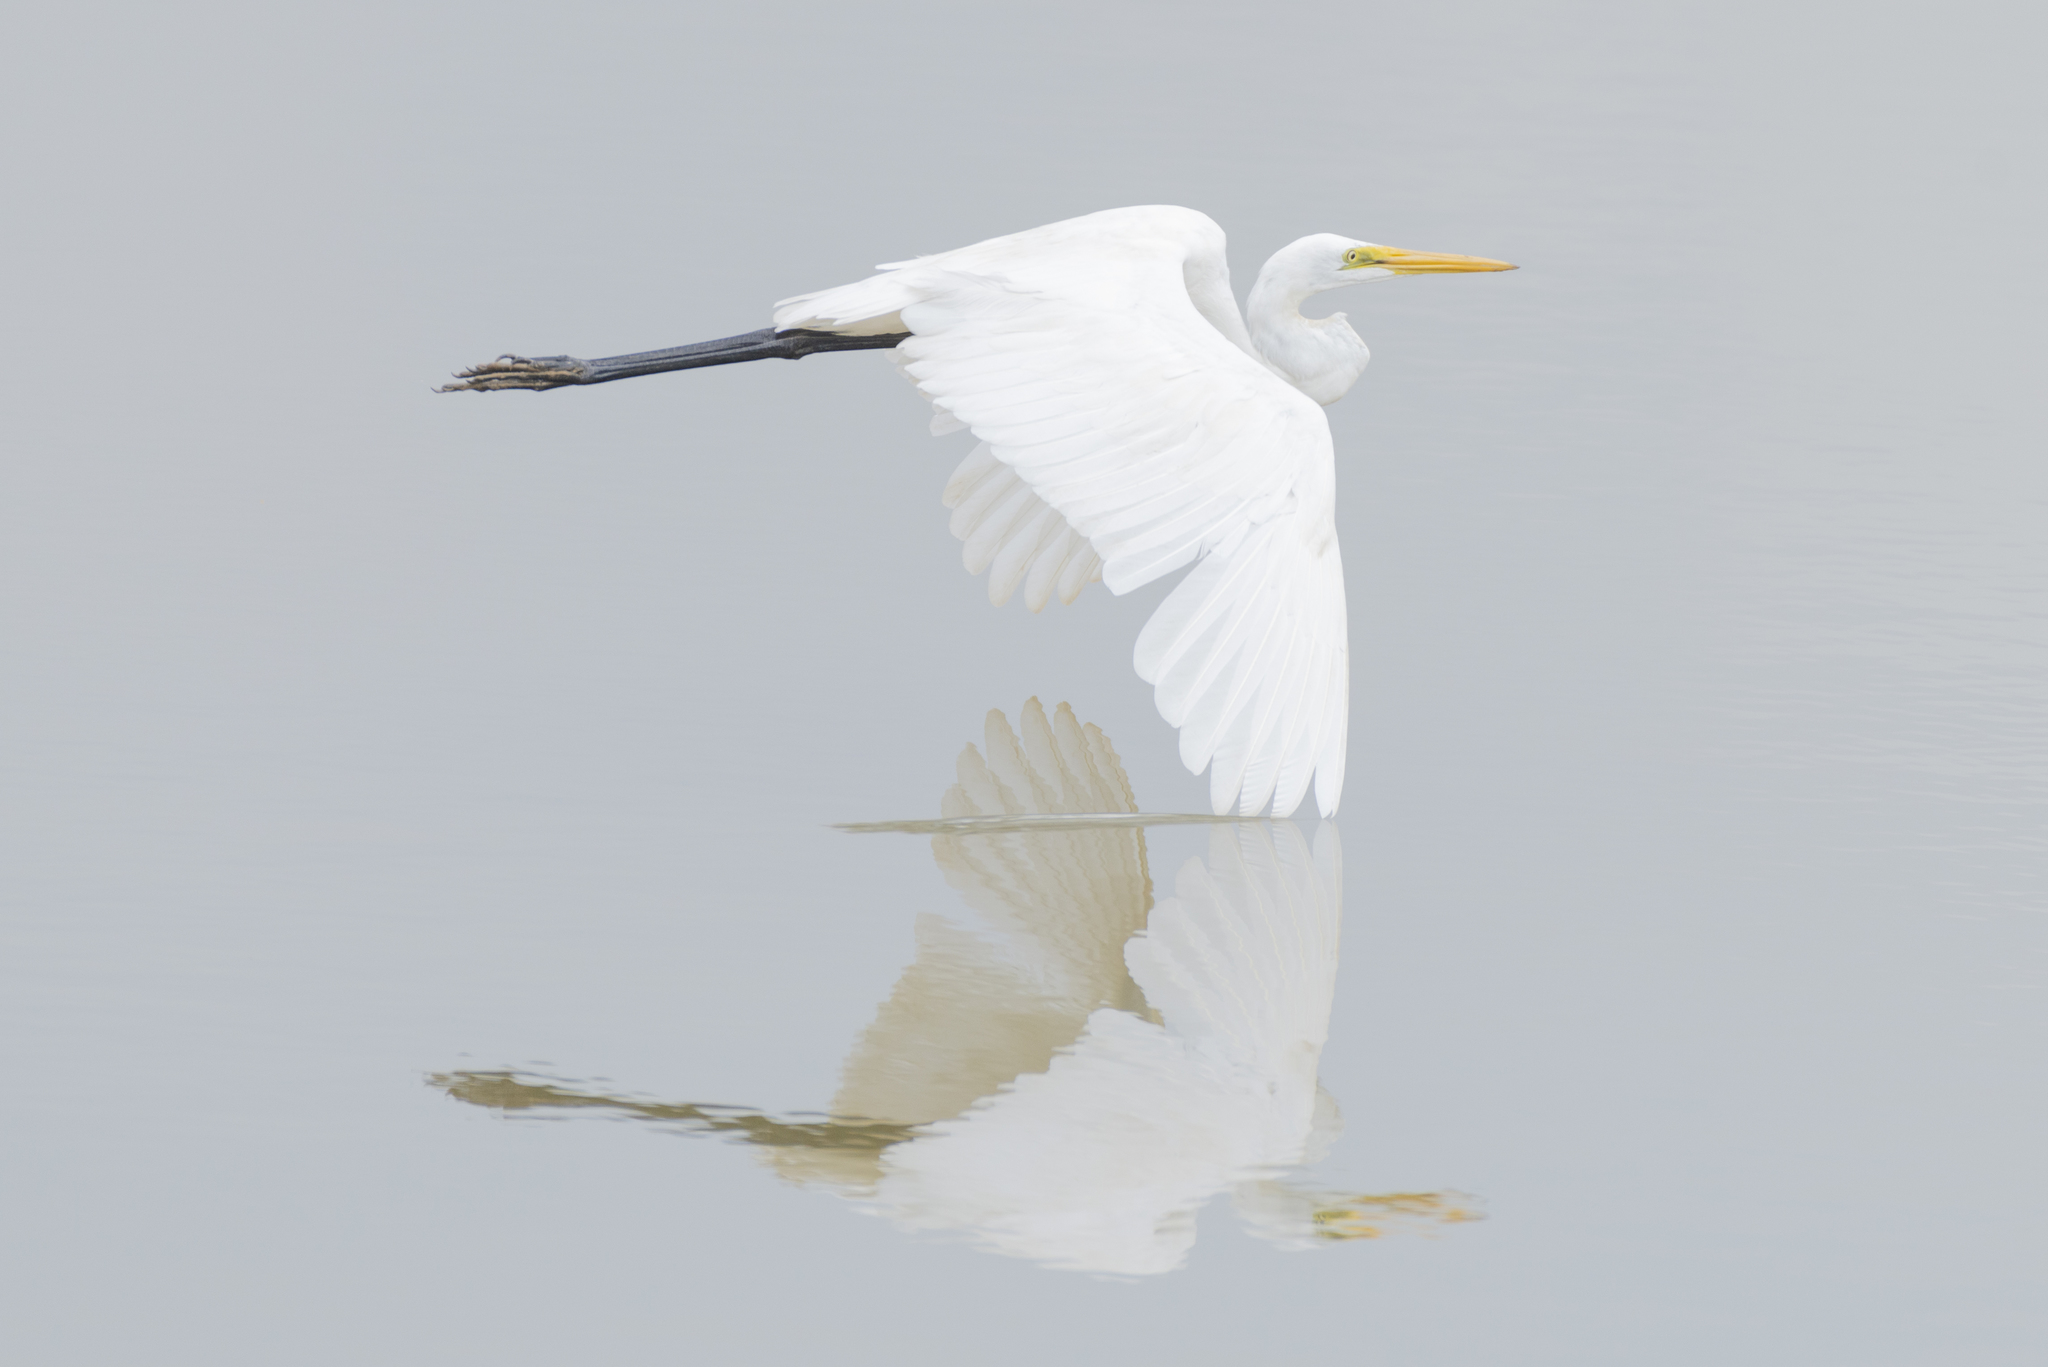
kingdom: Animalia
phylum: Chordata
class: Aves
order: Pelecaniformes
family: Ardeidae
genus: Ardea
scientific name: Ardea alba
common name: Great egret
